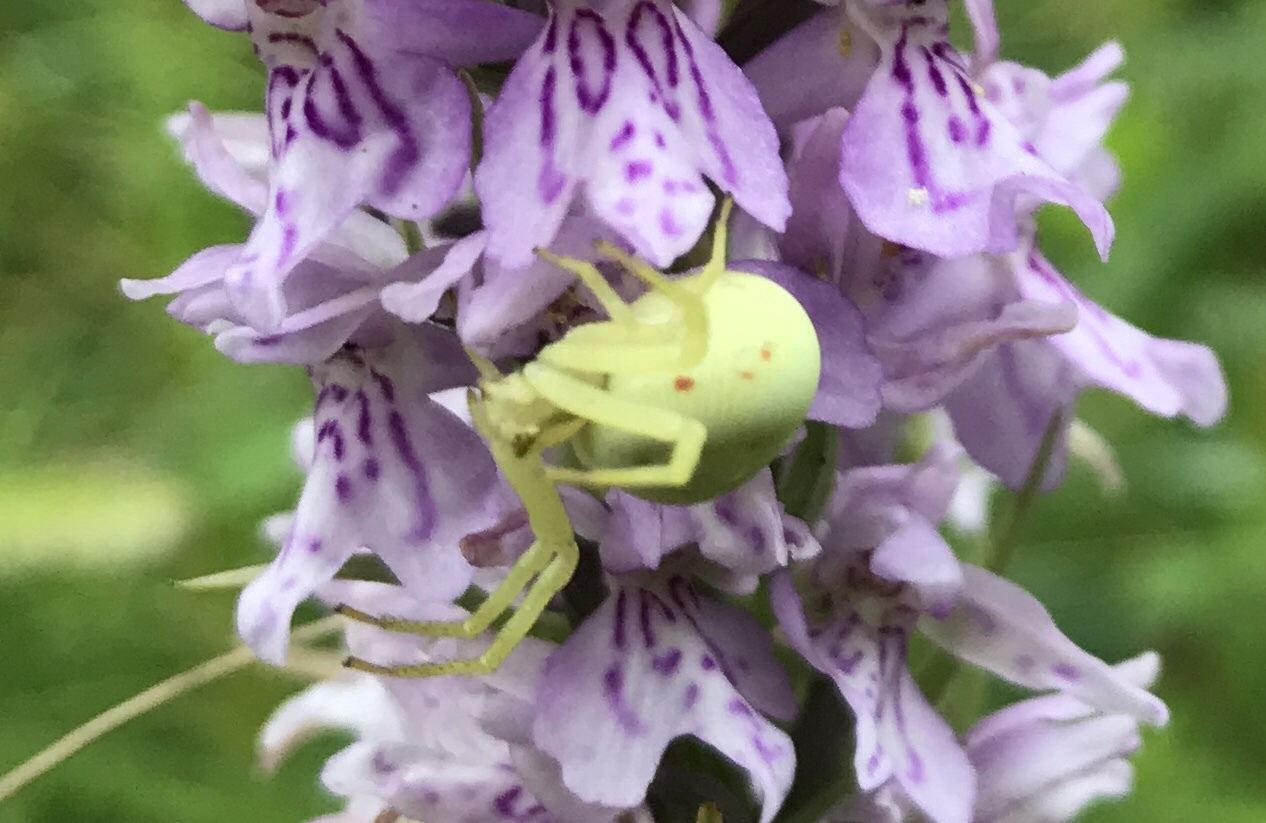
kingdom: Animalia
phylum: Arthropoda
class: Arachnida
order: Araneae
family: Thomisidae
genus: Misumena
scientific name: Misumena vatia
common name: Goldenrod crab spider
